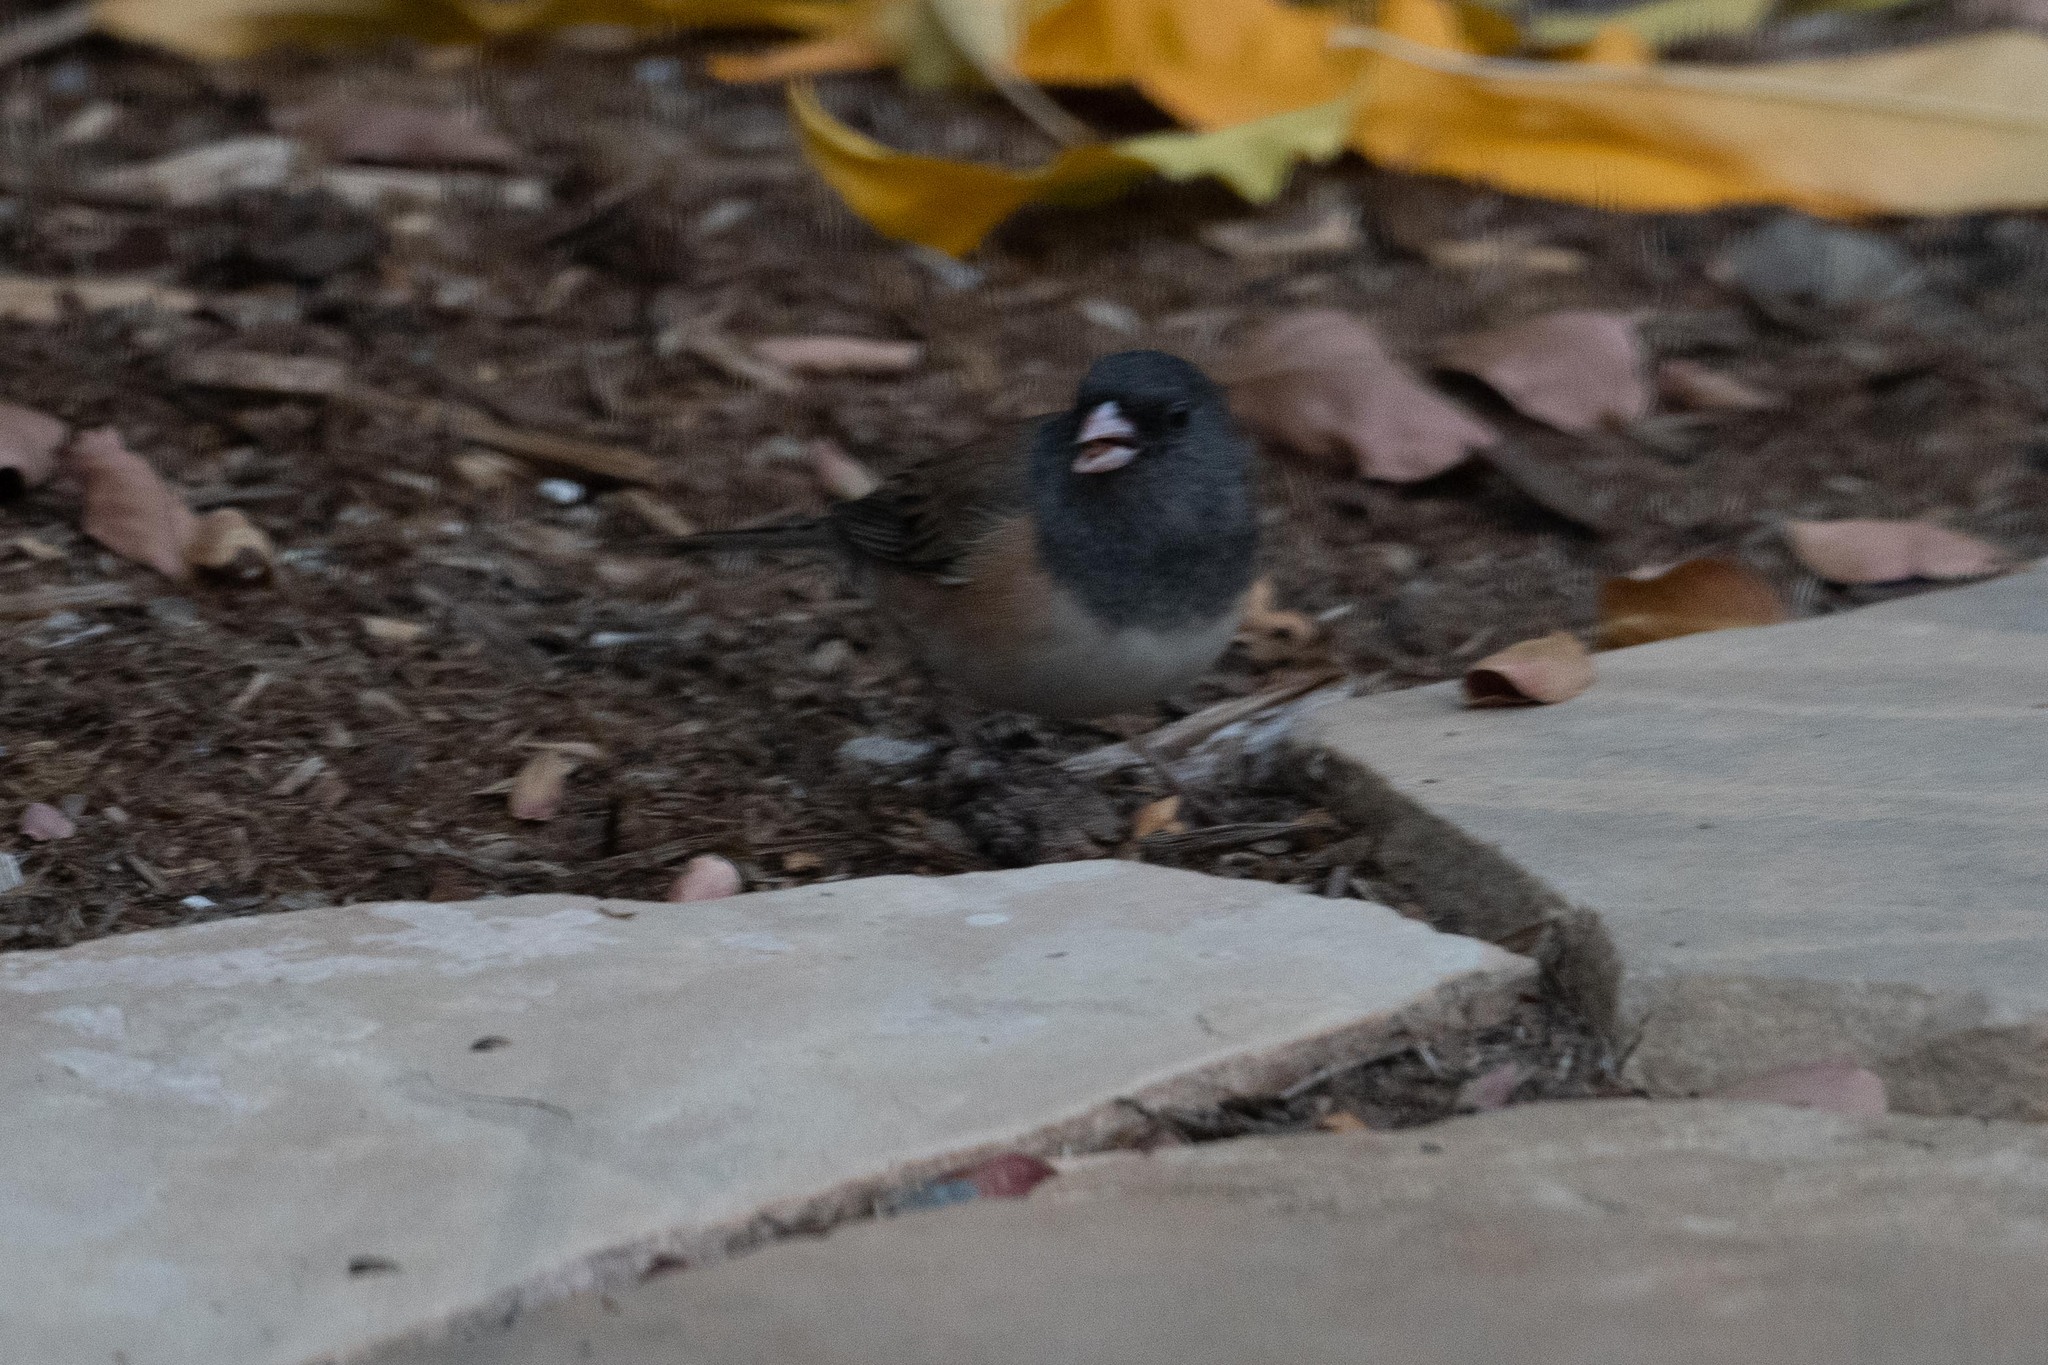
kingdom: Animalia
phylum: Chordata
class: Aves
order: Passeriformes
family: Passerellidae
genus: Junco
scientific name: Junco hyemalis
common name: Dark-eyed junco
